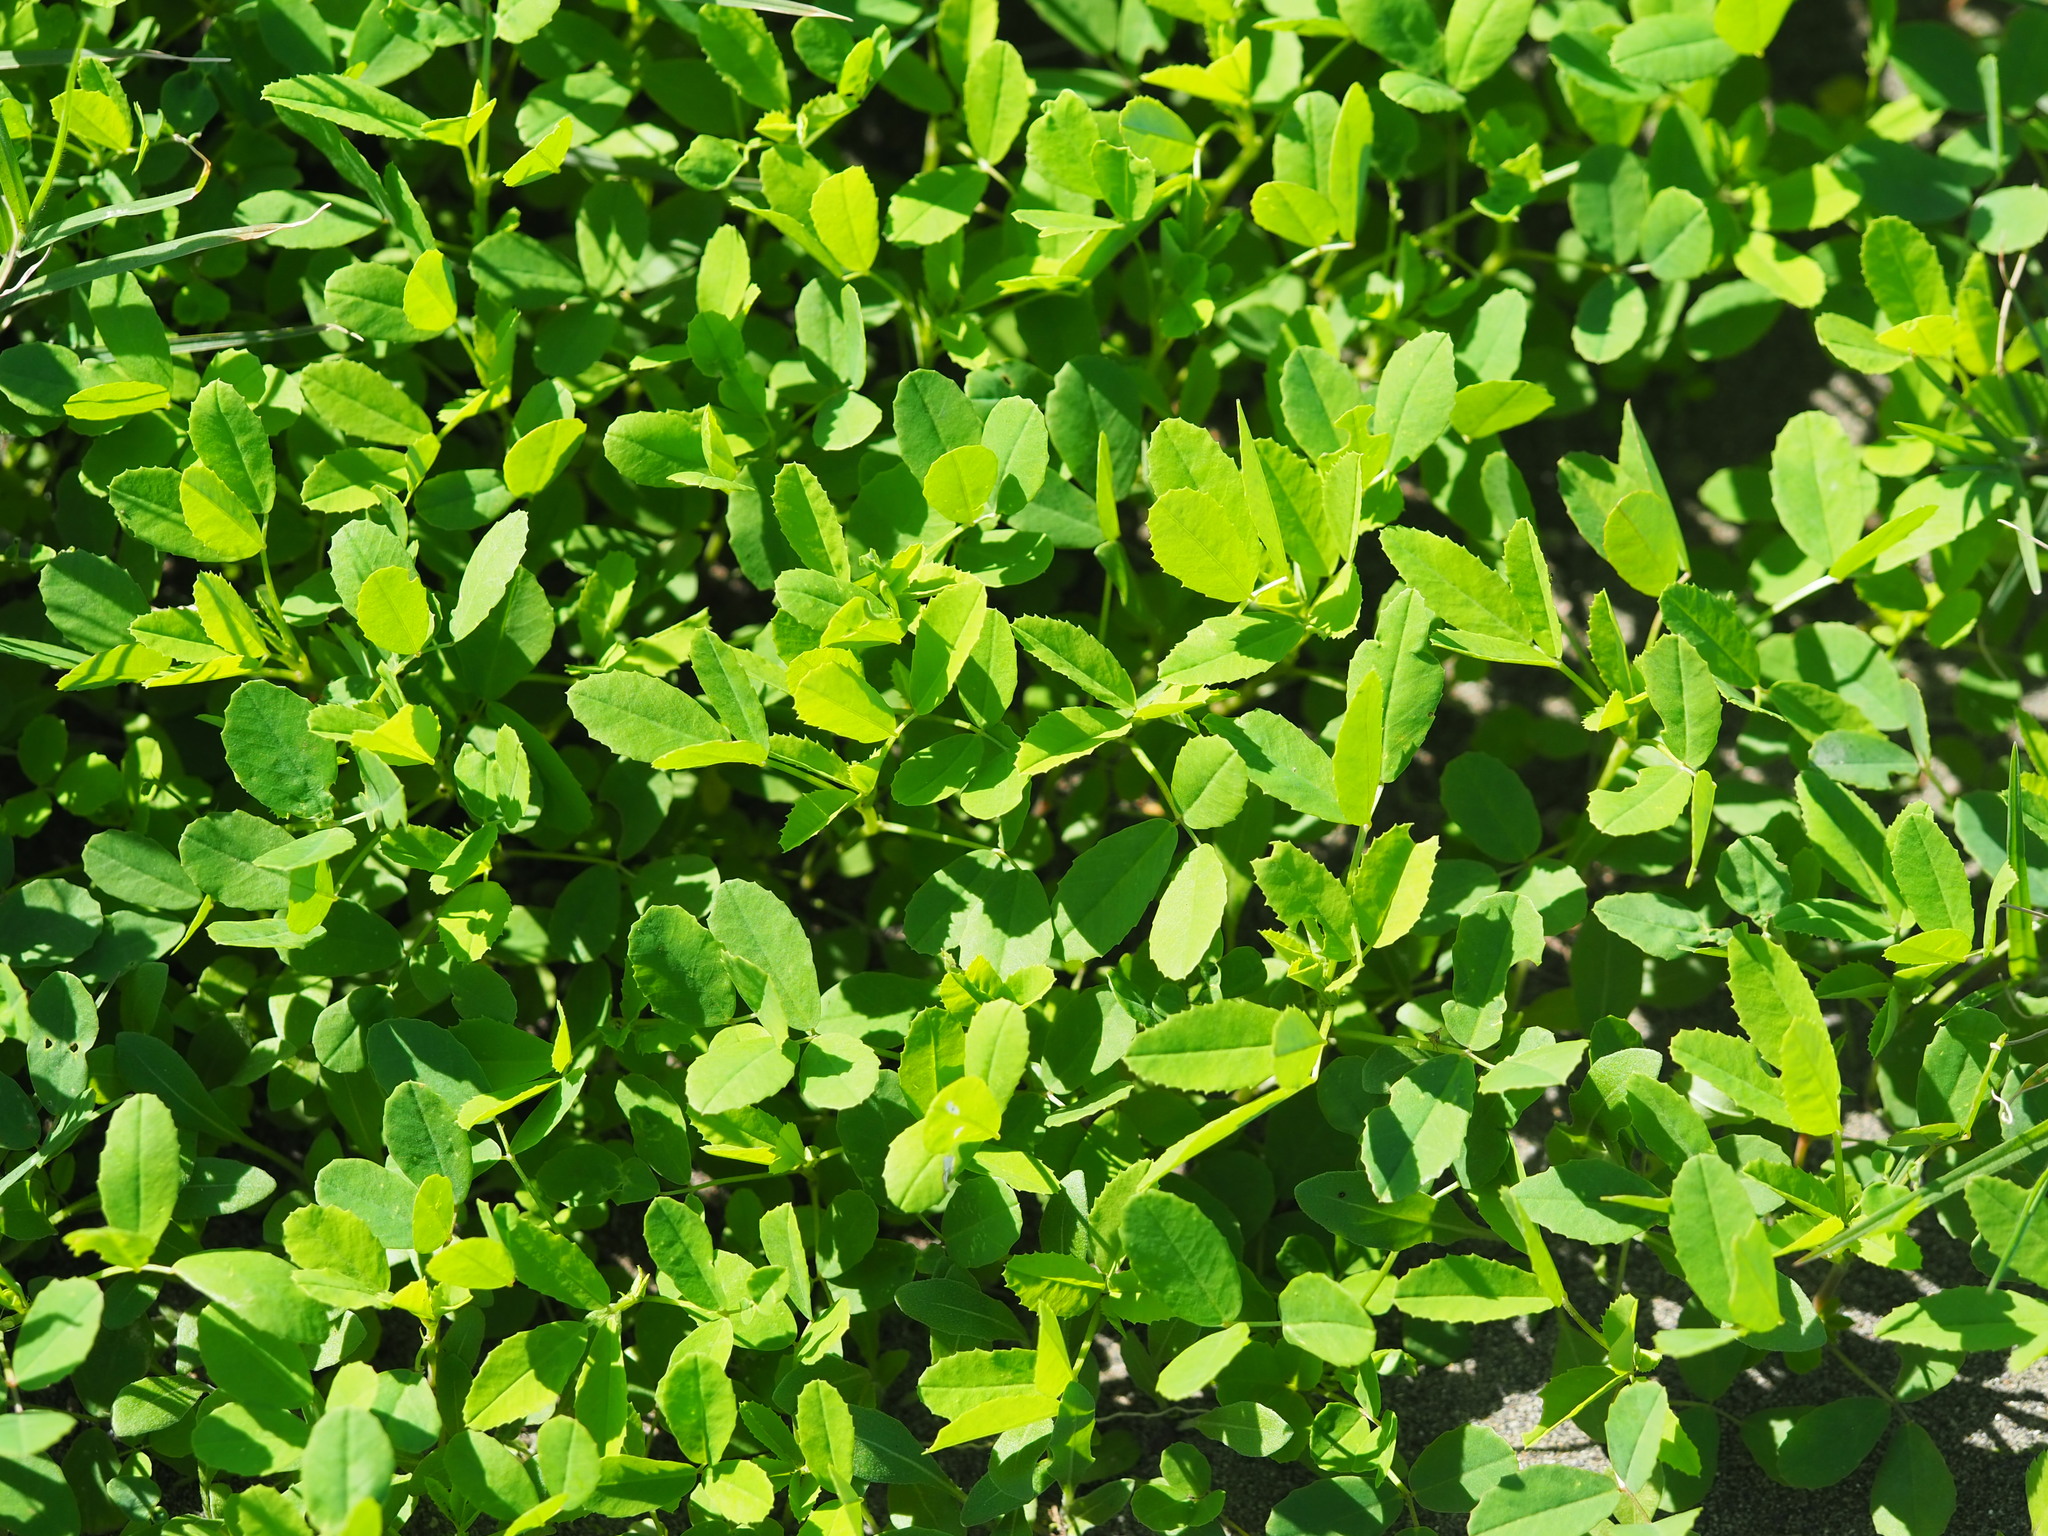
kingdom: Plantae
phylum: Tracheophyta
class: Magnoliopsida
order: Fabales
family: Fabaceae
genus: Melilotus
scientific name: Melilotus indicus
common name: Small melilot
